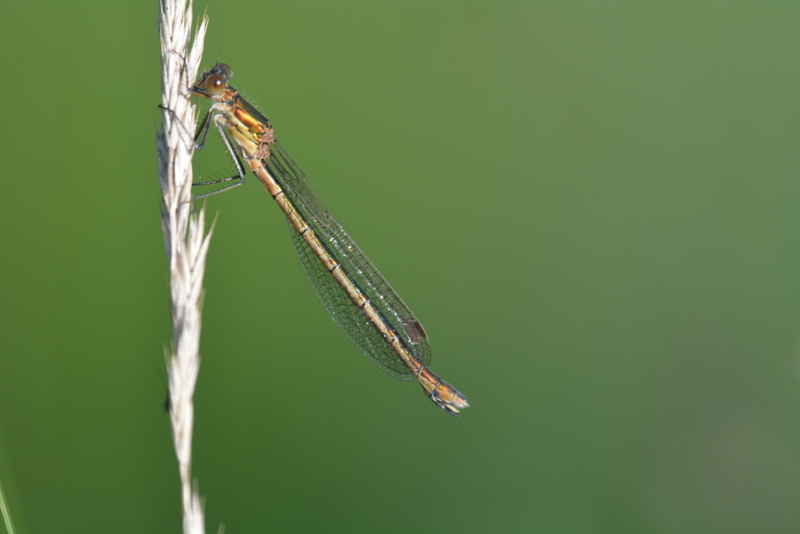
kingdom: Animalia
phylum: Arthropoda
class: Insecta
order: Odonata
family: Lestidae
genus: Lestes
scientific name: Lestes sponsa
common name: Common spreadwing
